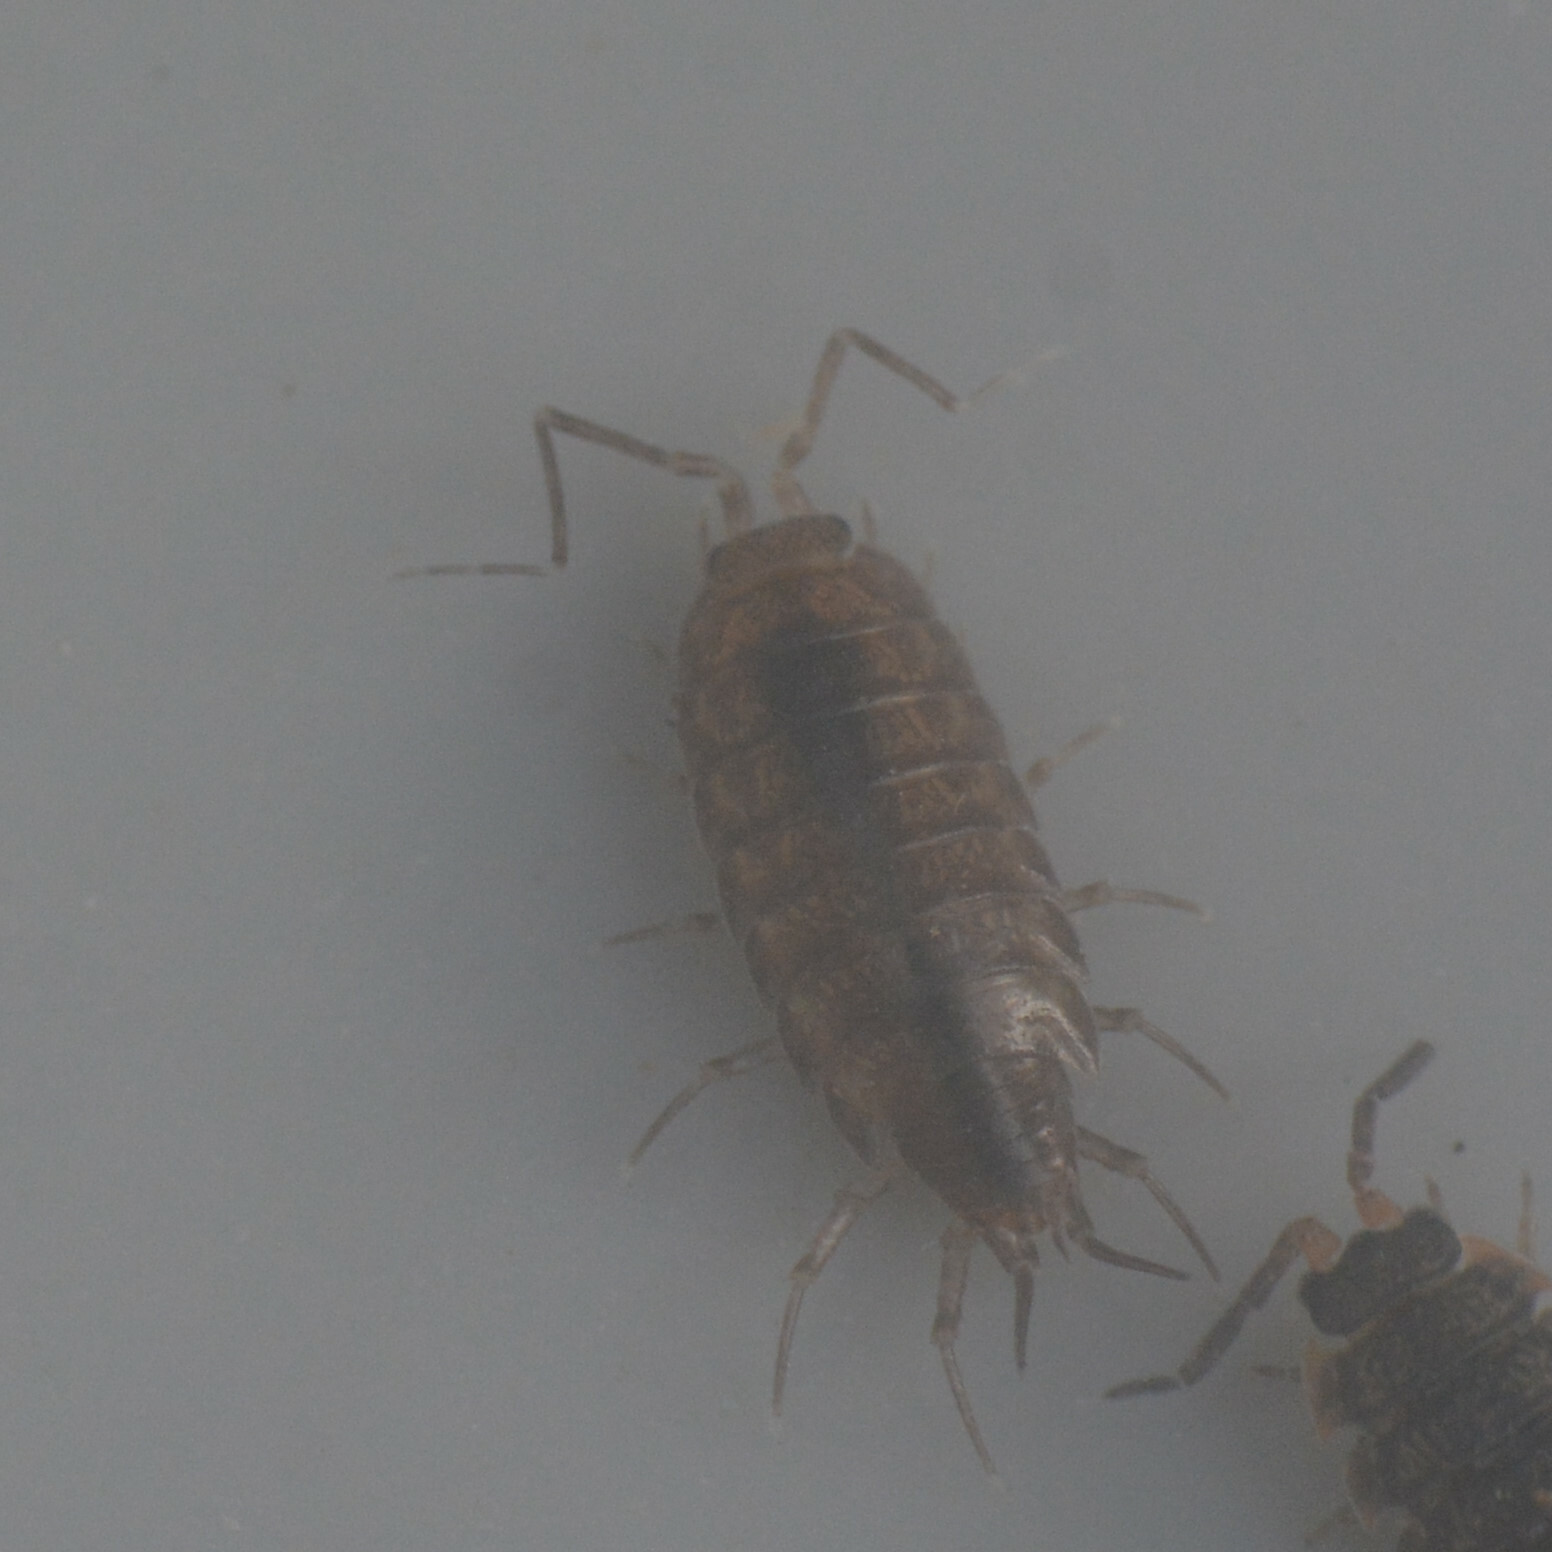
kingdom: Animalia
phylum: Arthropoda
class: Malacostraca
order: Isopoda
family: Halophilosciidae
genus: Halophiloscia
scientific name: Halophiloscia couchii
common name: Isopod
